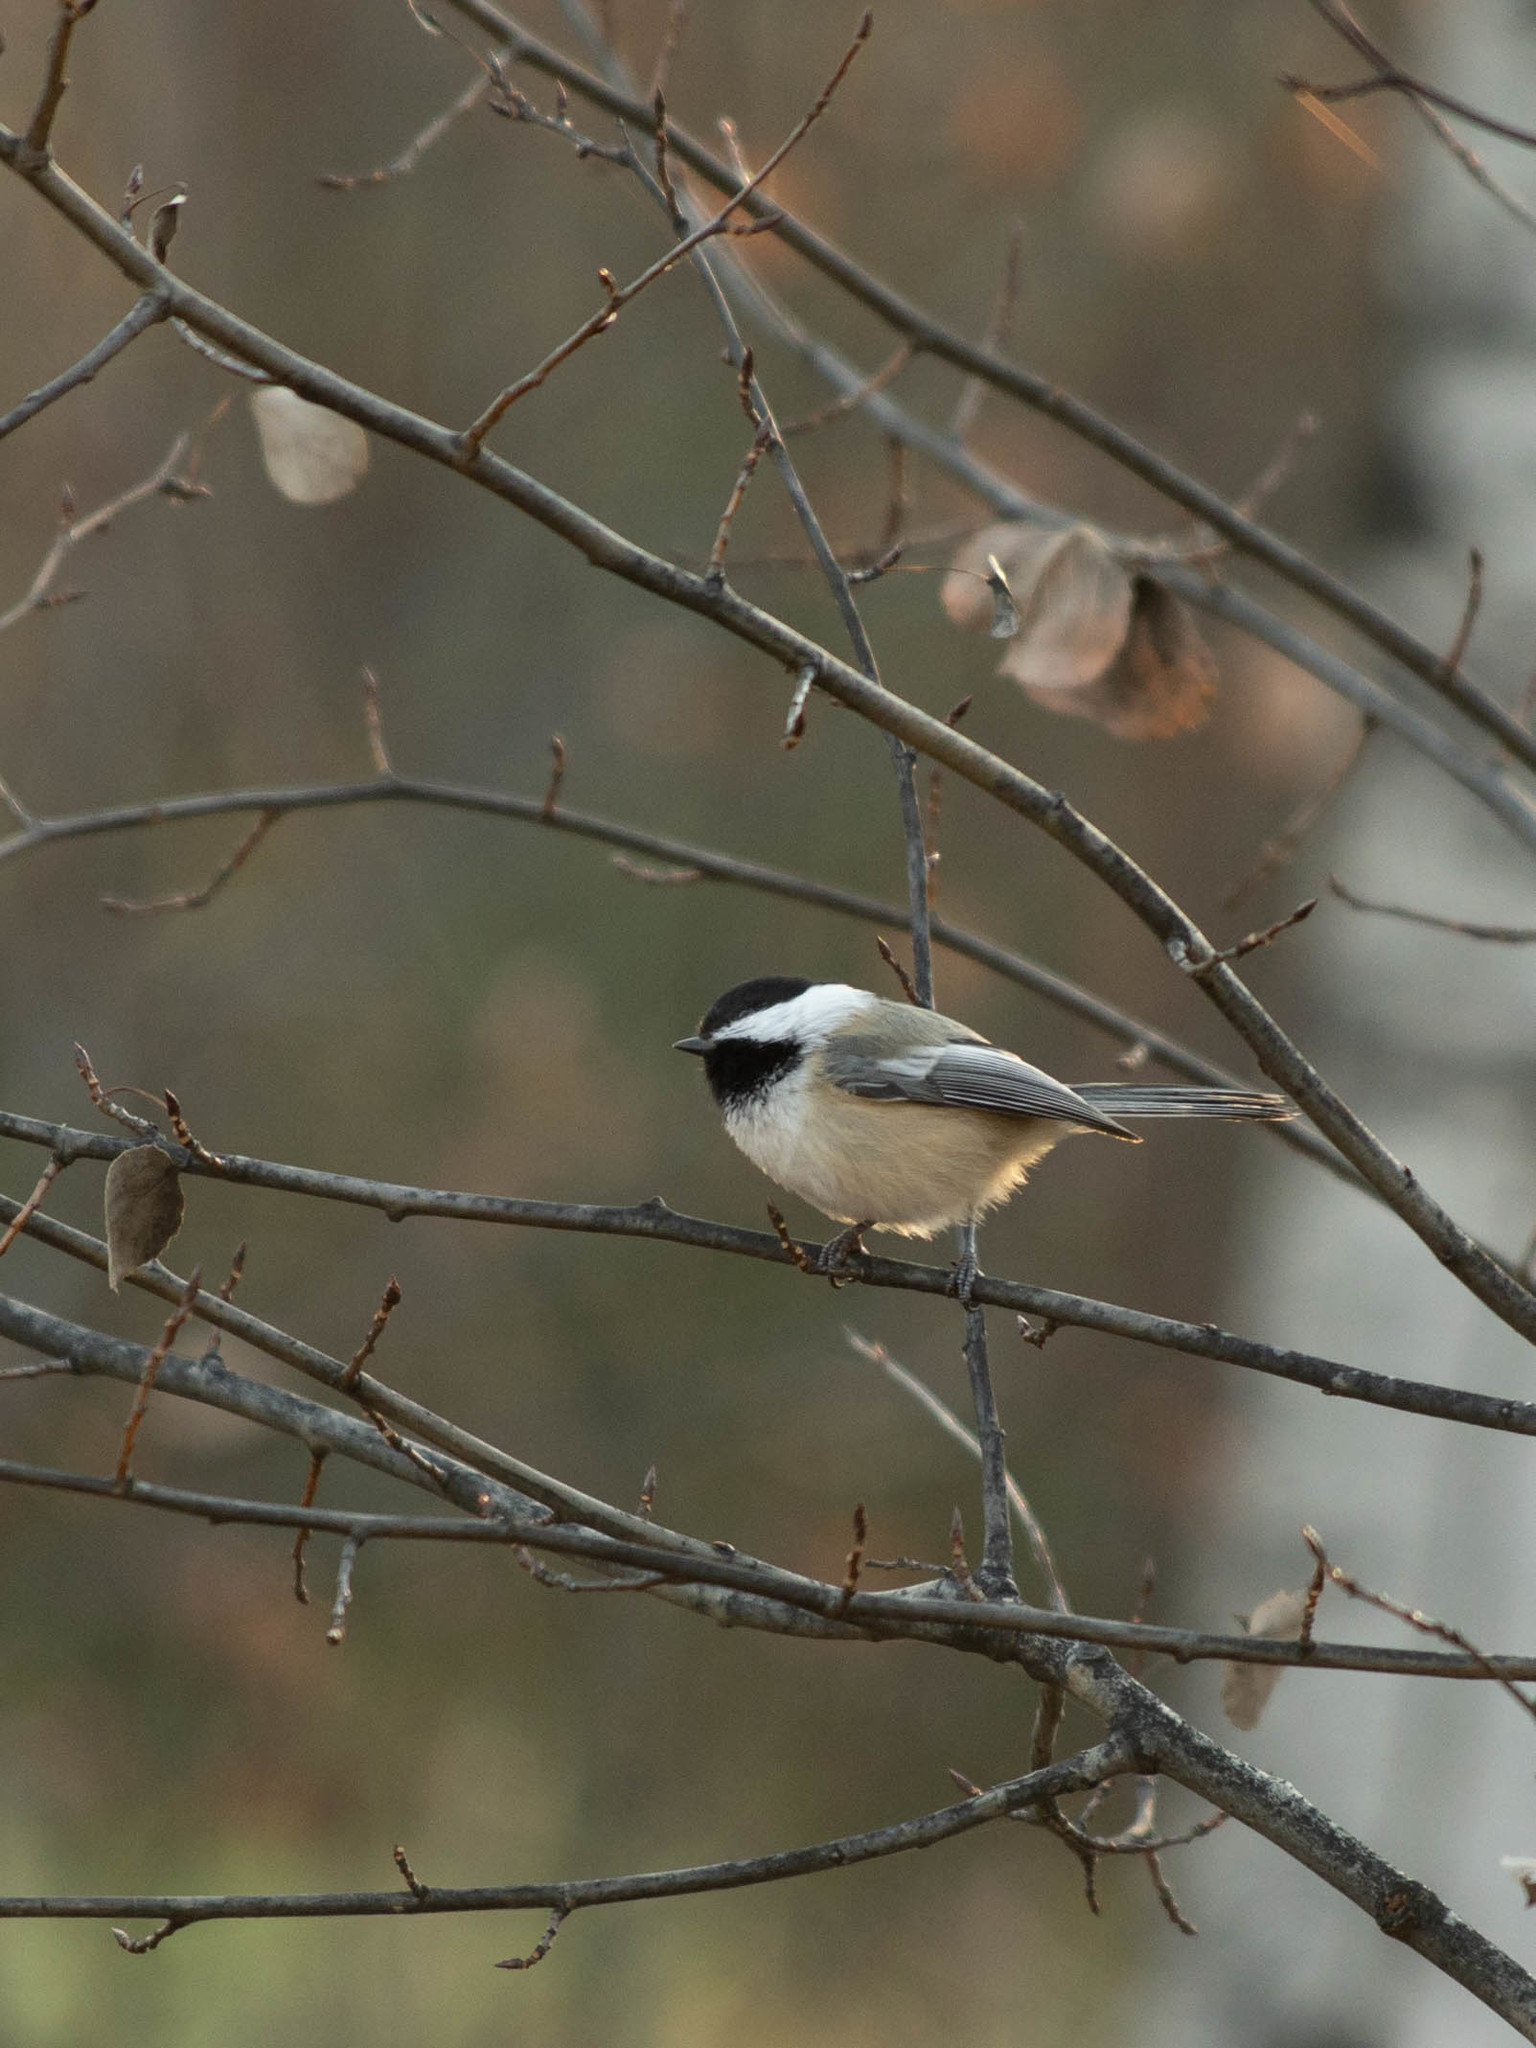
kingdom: Animalia
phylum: Chordata
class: Aves
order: Passeriformes
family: Paridae
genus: Poecile
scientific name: Poecile atricapillus
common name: Black-capped chickadee
